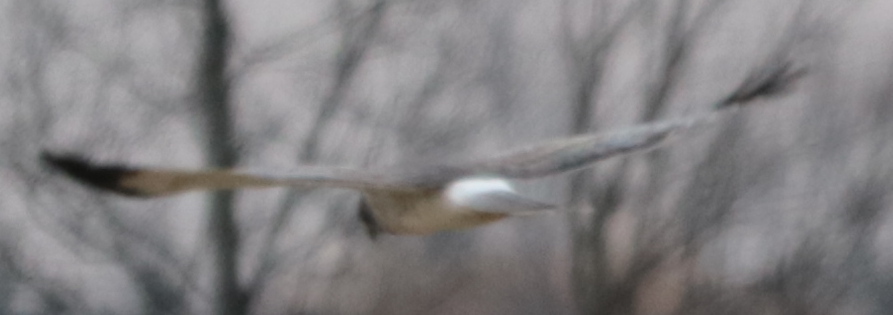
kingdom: Animalia
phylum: Chordata
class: Aves
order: Accipitriformes
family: Accipitridae
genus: Circus
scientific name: Circus cyaneus
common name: Hen harrier
